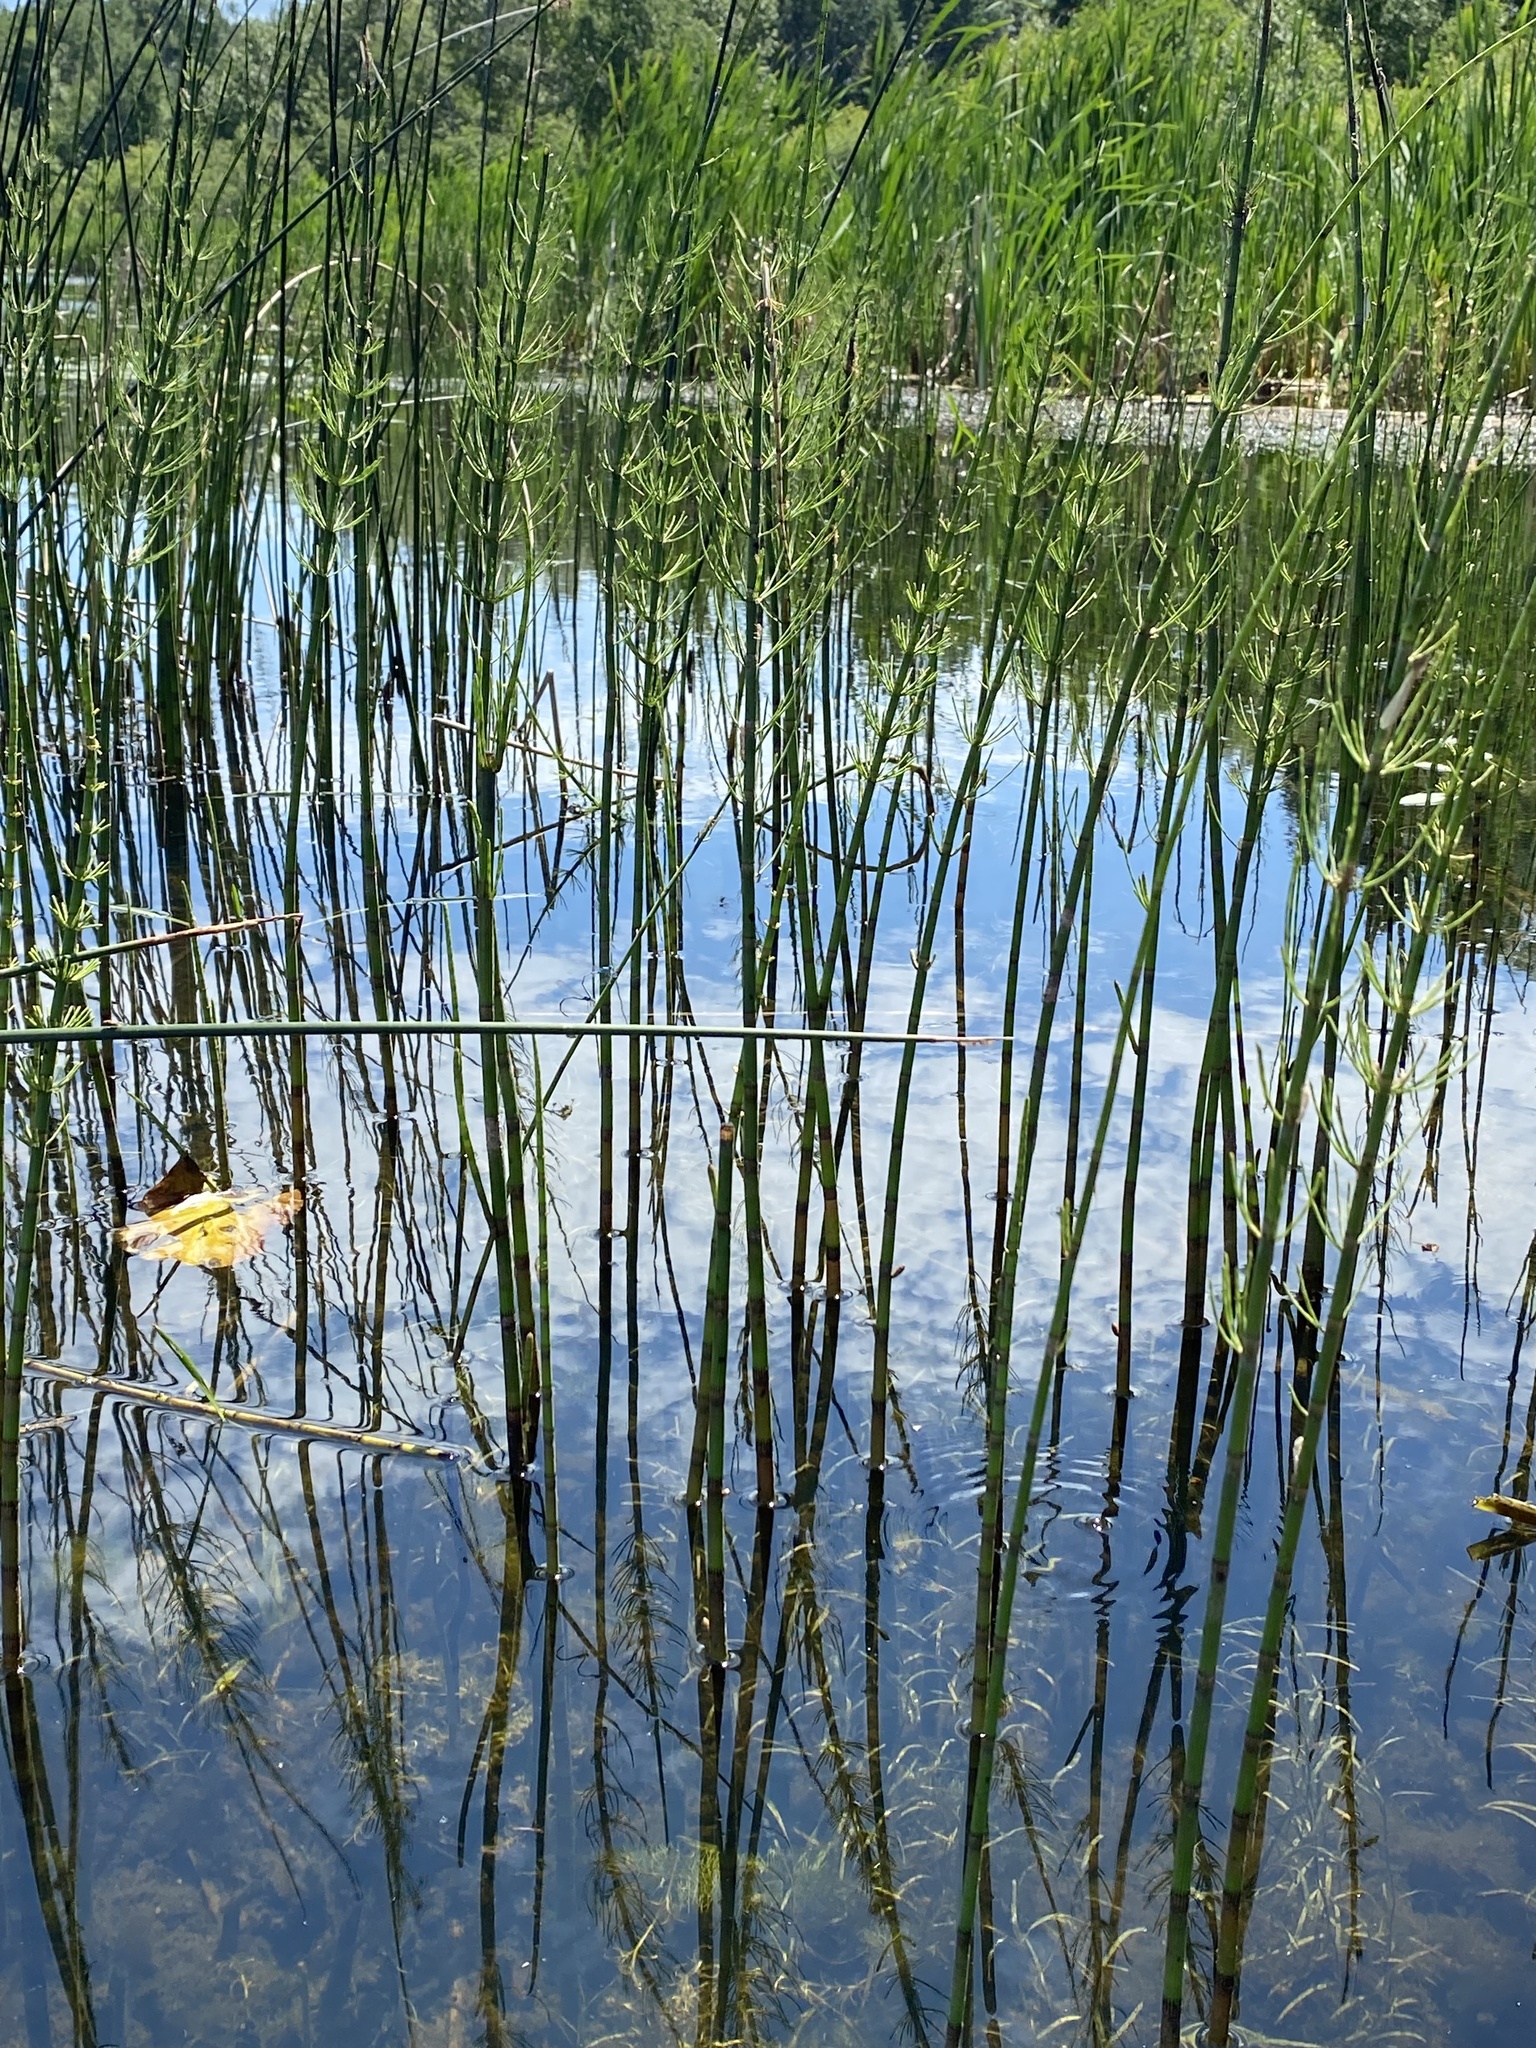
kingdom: Plantae
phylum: Tracheophyta
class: Polypodiopsida
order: Equisetales
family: Equisetaceae
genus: Equisetum
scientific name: Equisetum fluviatile
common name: Water horsetail
